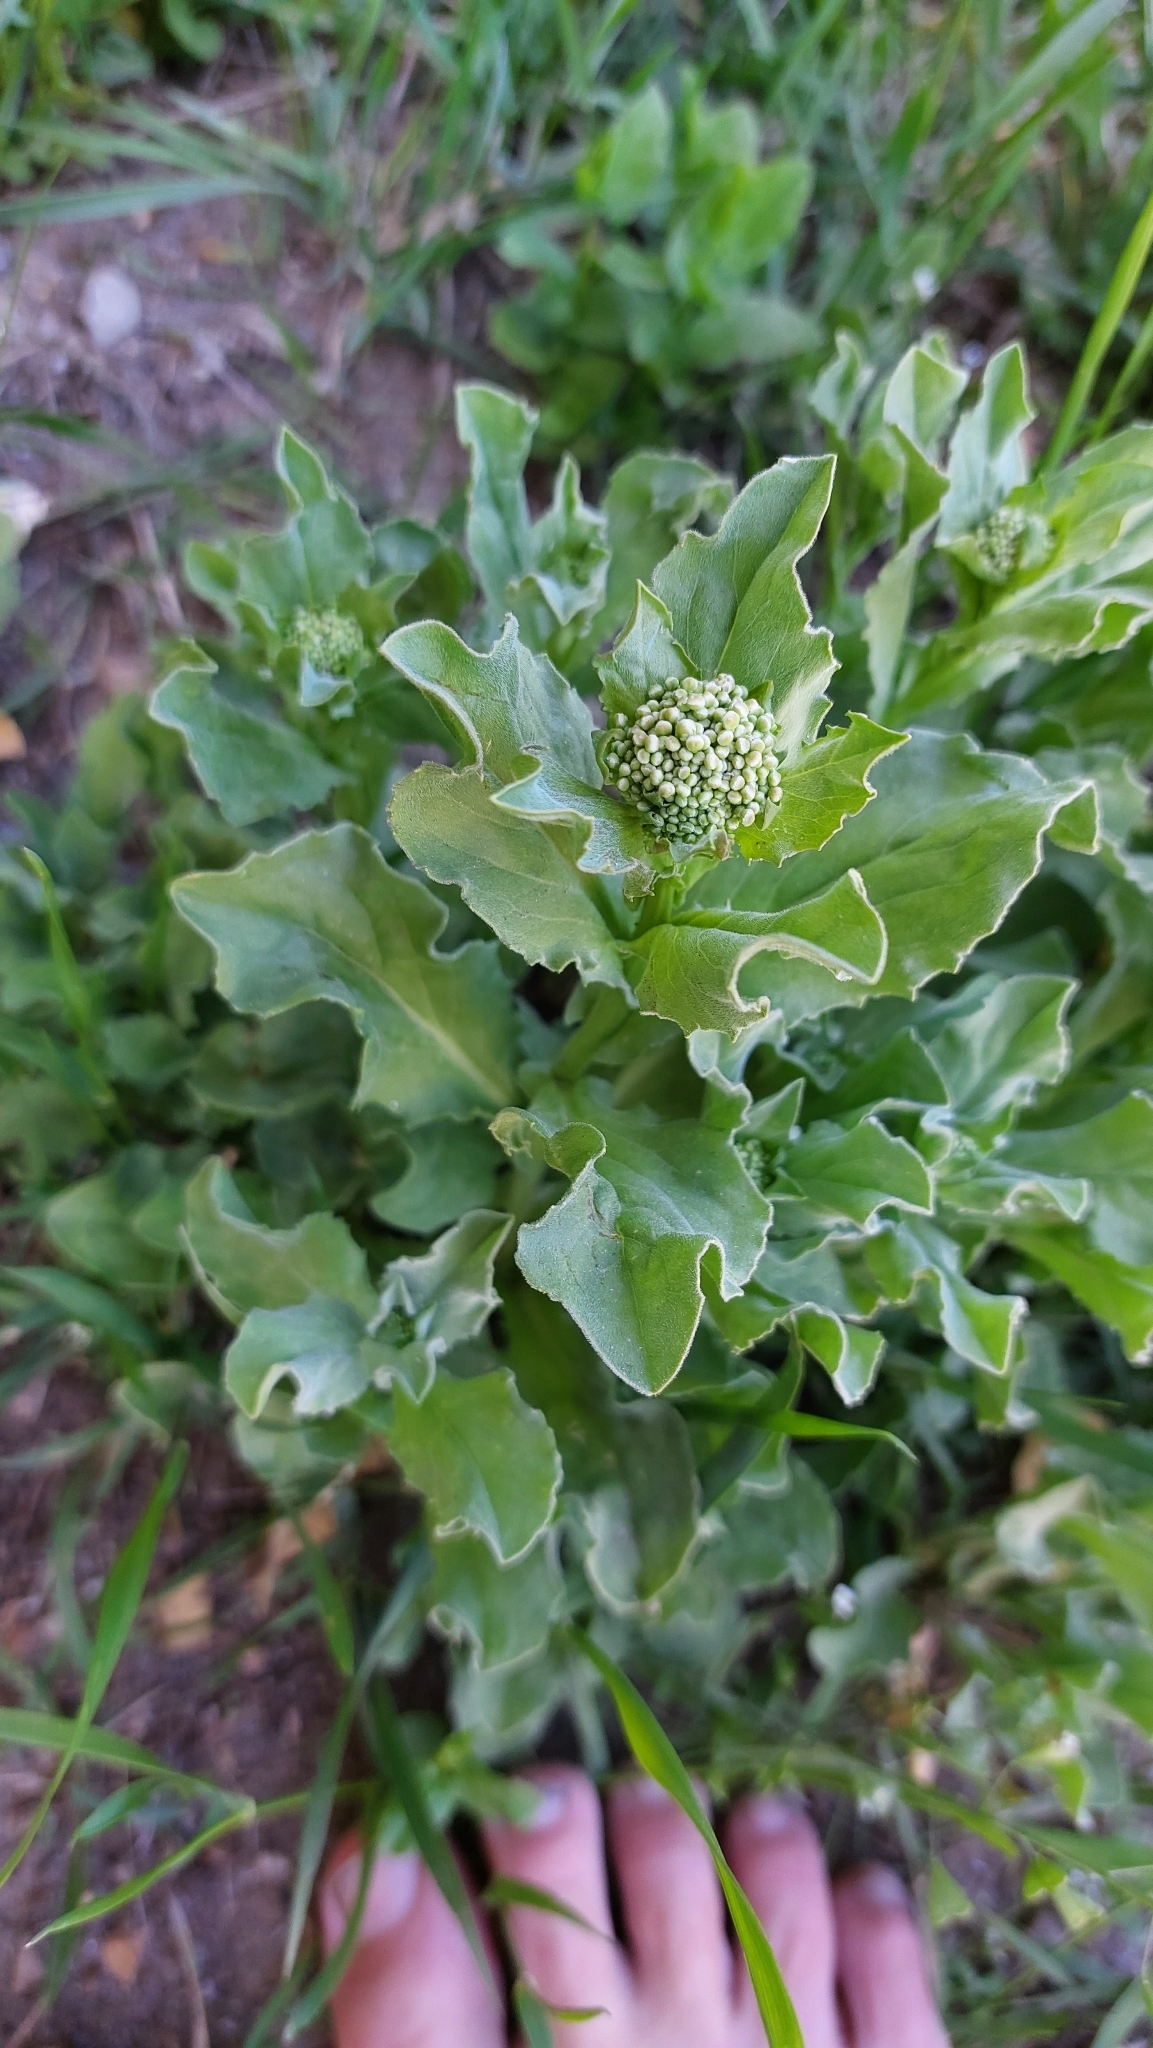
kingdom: Plantae
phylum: Tracheophyta
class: Magnoliopsida
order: Brassicales
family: Brassicaceae
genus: Lepidium
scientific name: Lepidium draba
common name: Hoary cress
